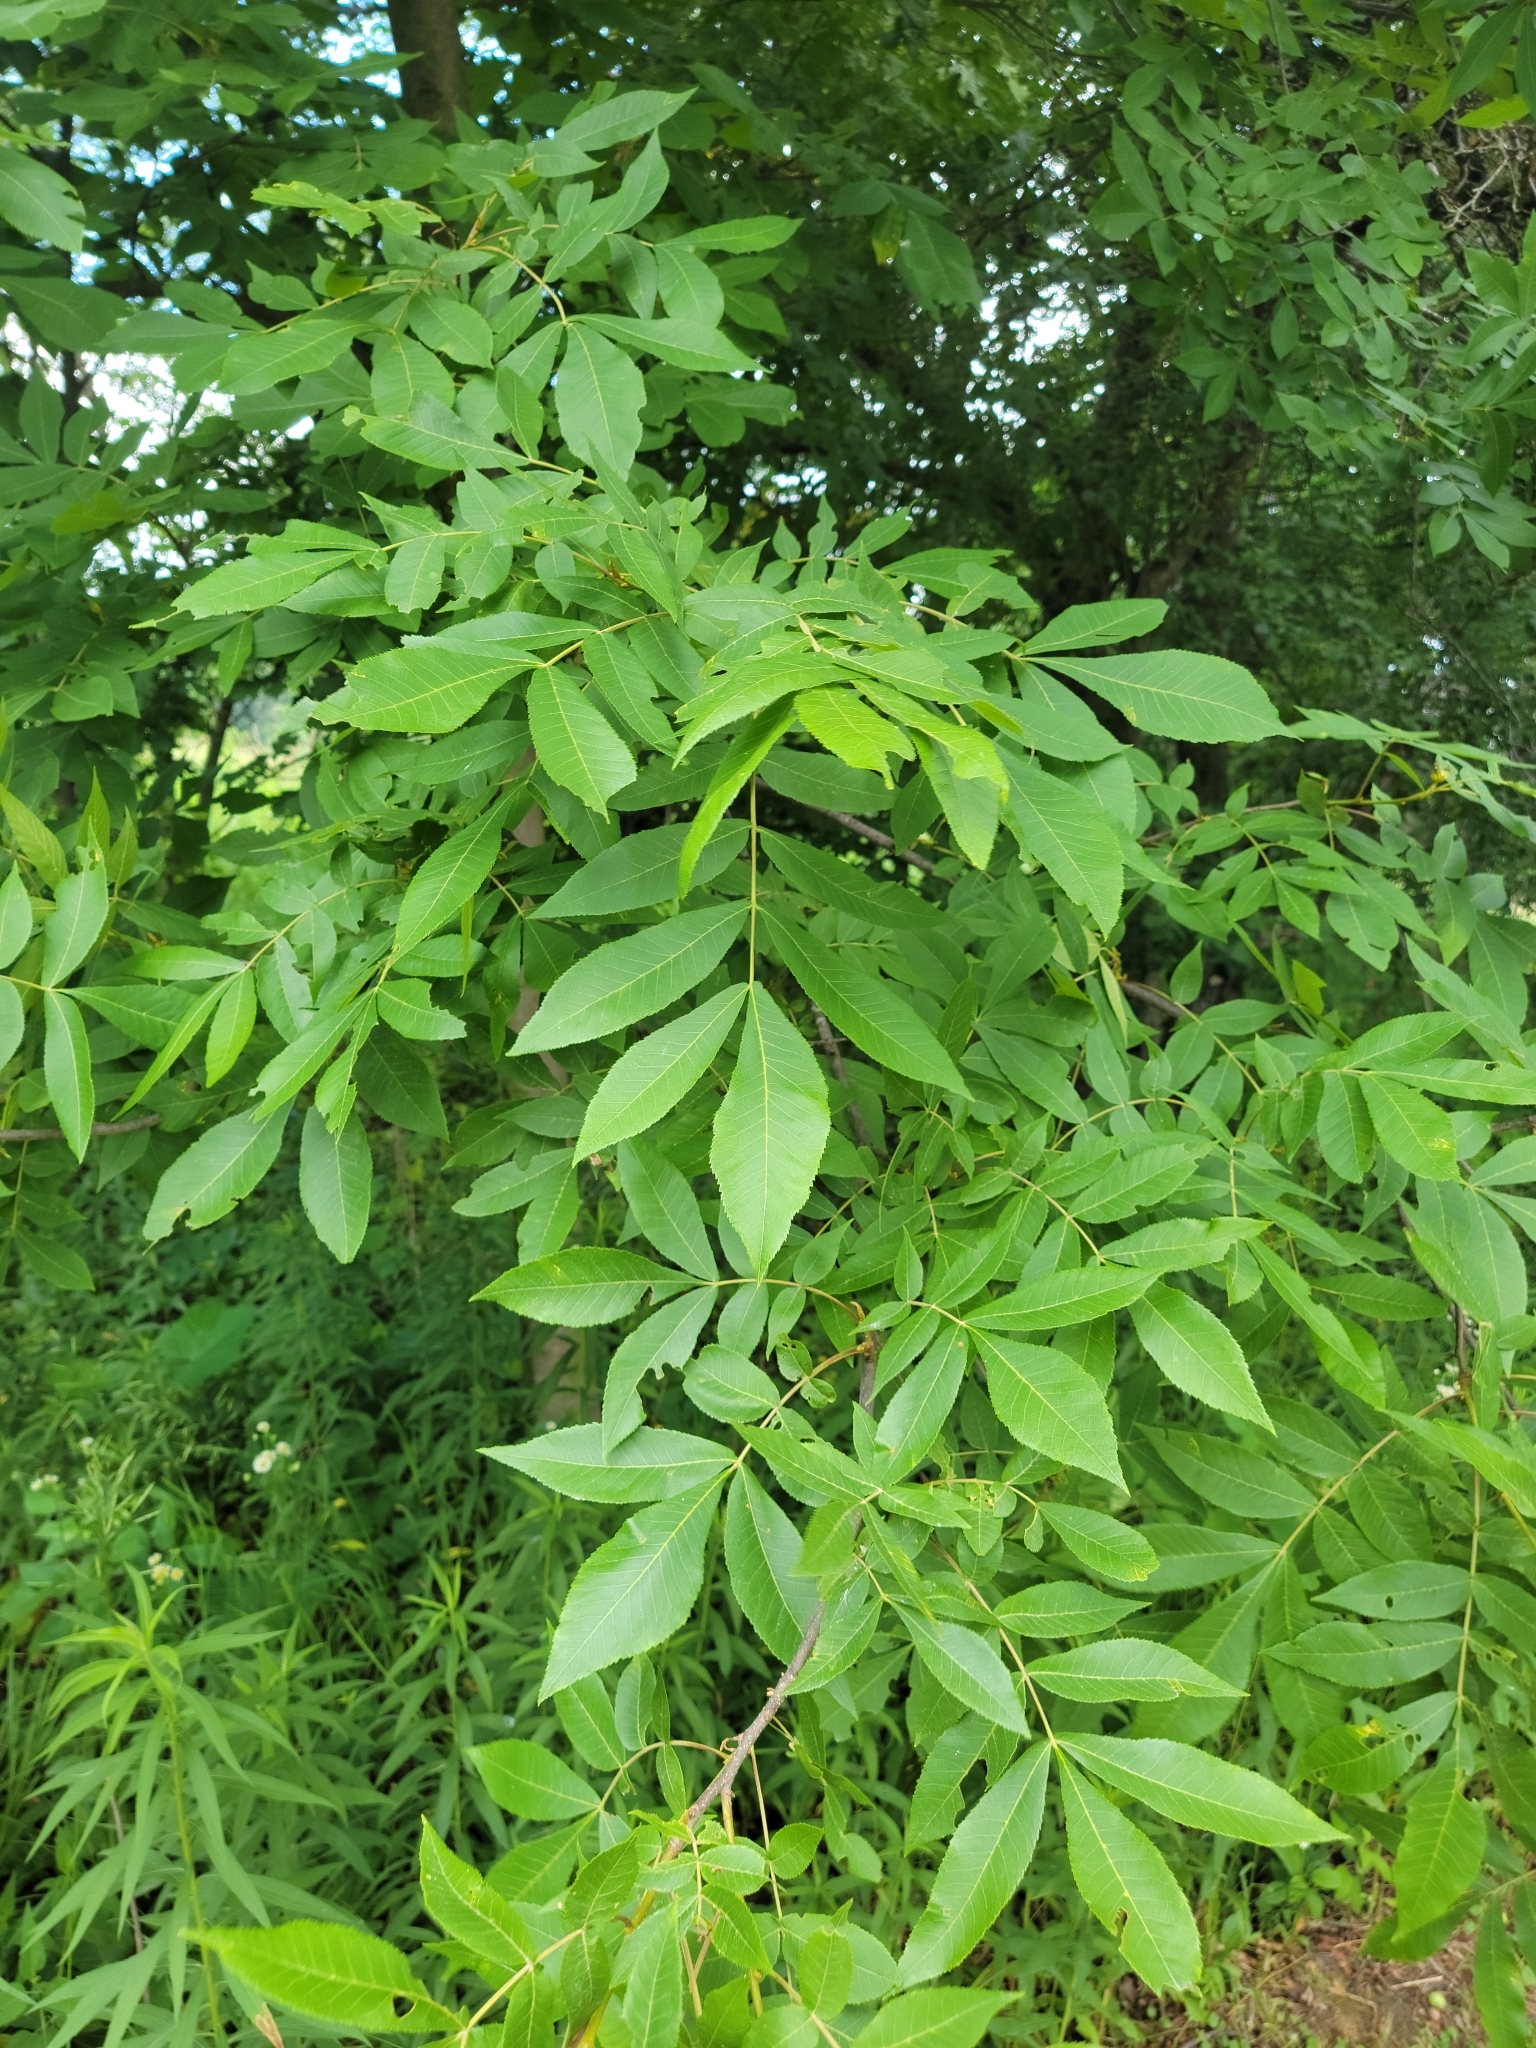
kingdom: Plantae
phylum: Tracheophyta
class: Magnoliopsida
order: Fagales
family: Juglandaceae
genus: Carya
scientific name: Carya cordiformis
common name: Bitternut hickory
